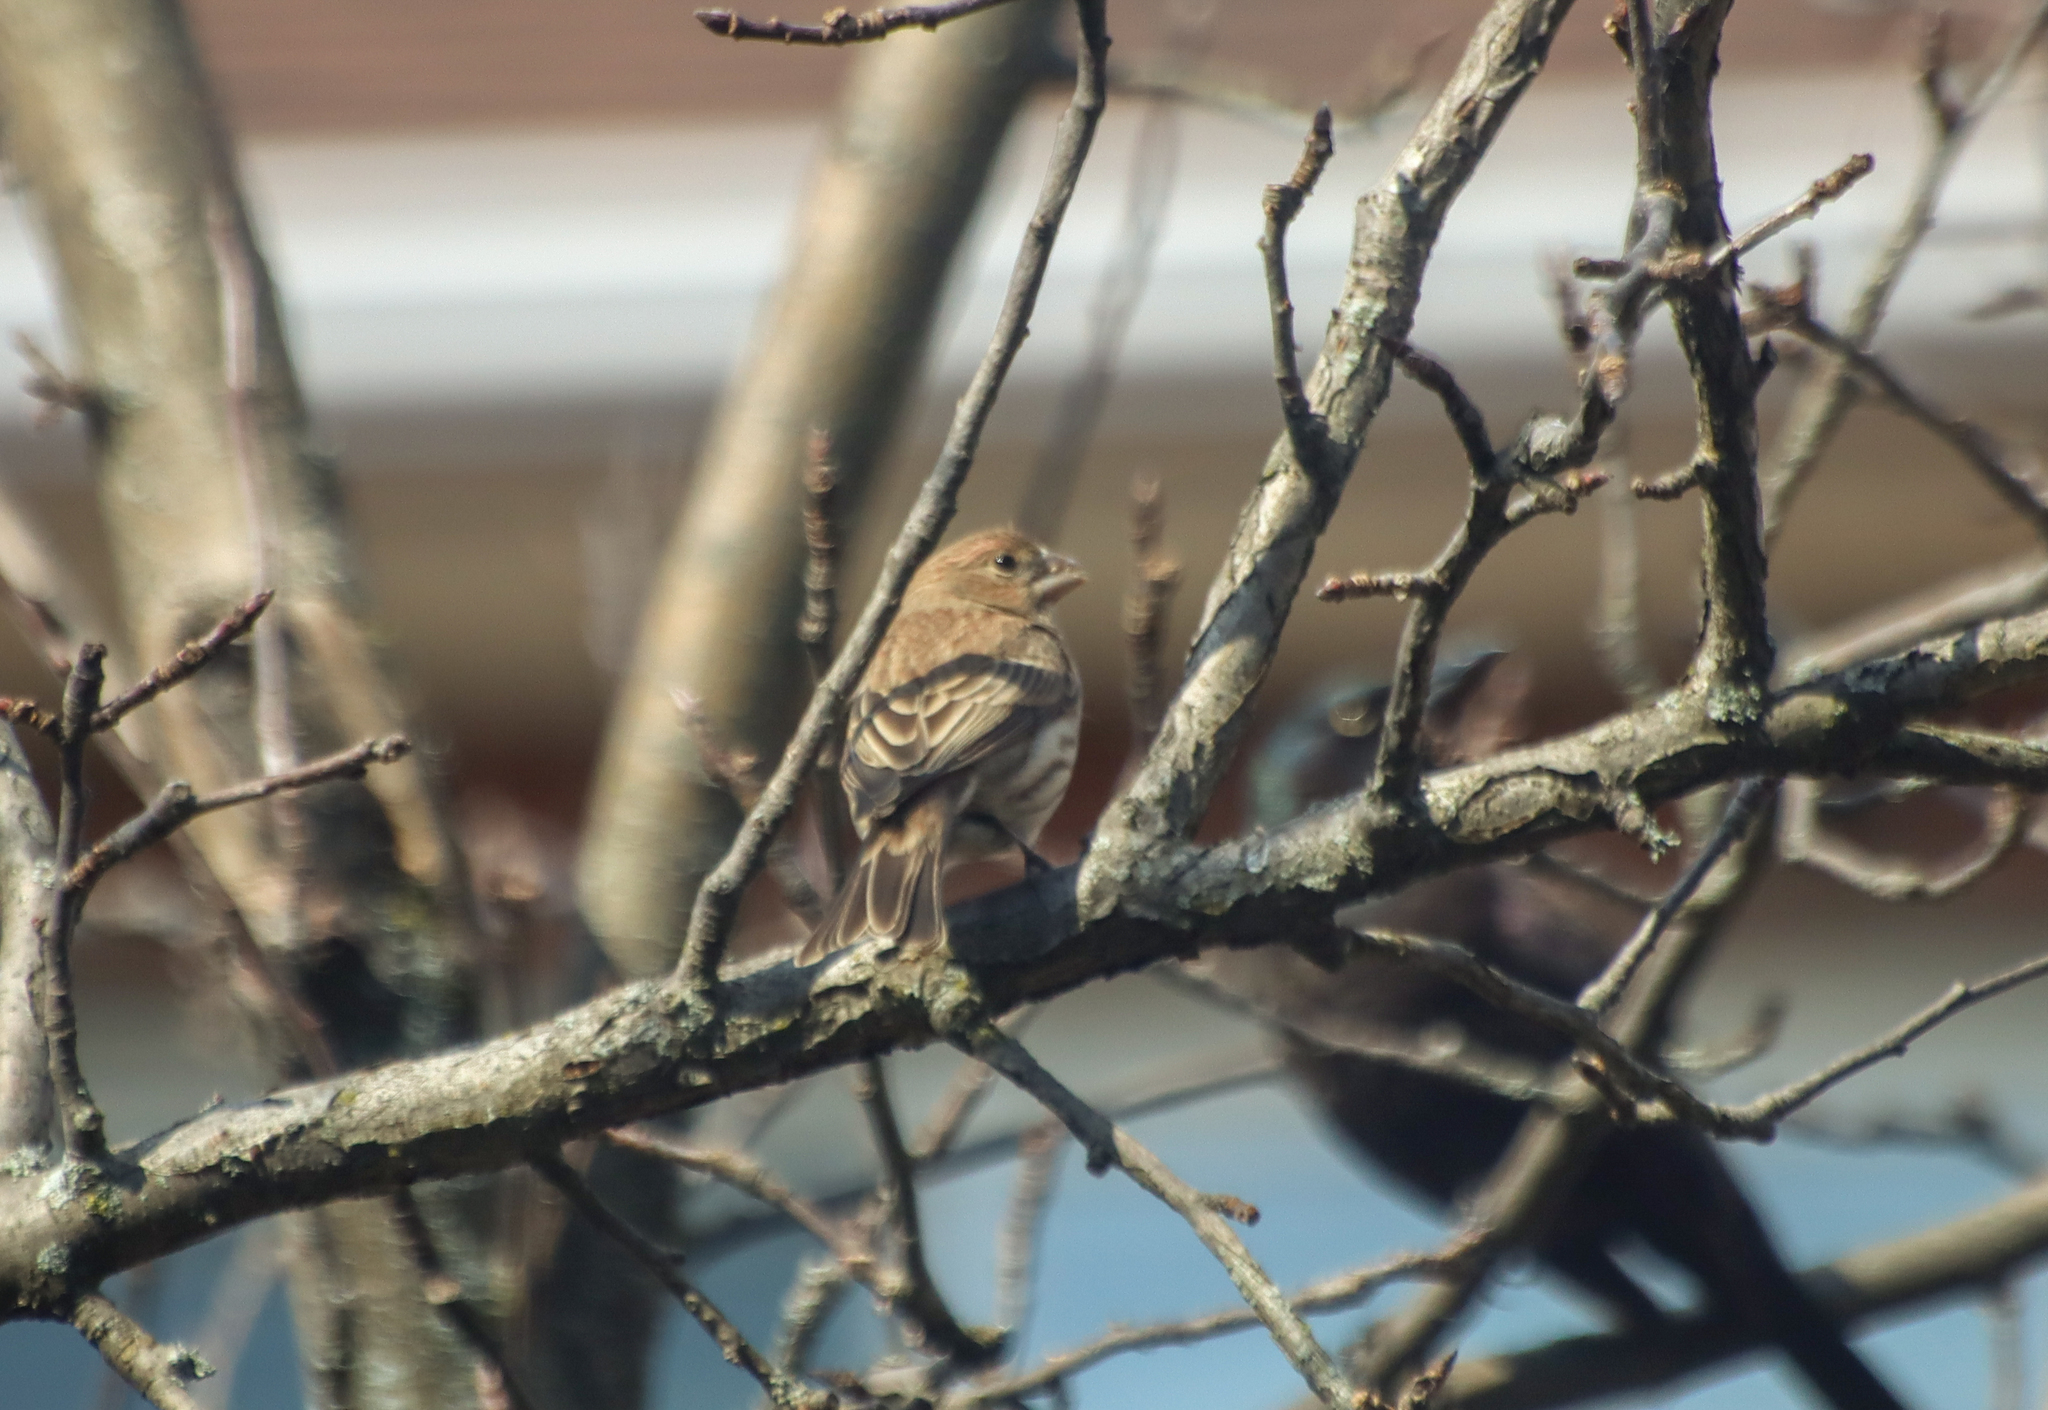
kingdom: Animalia
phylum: Chordata
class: Aves
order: Passeriformes
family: Fringillidae
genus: Haemorhous
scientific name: Haemorhous mexicanus
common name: House finch
